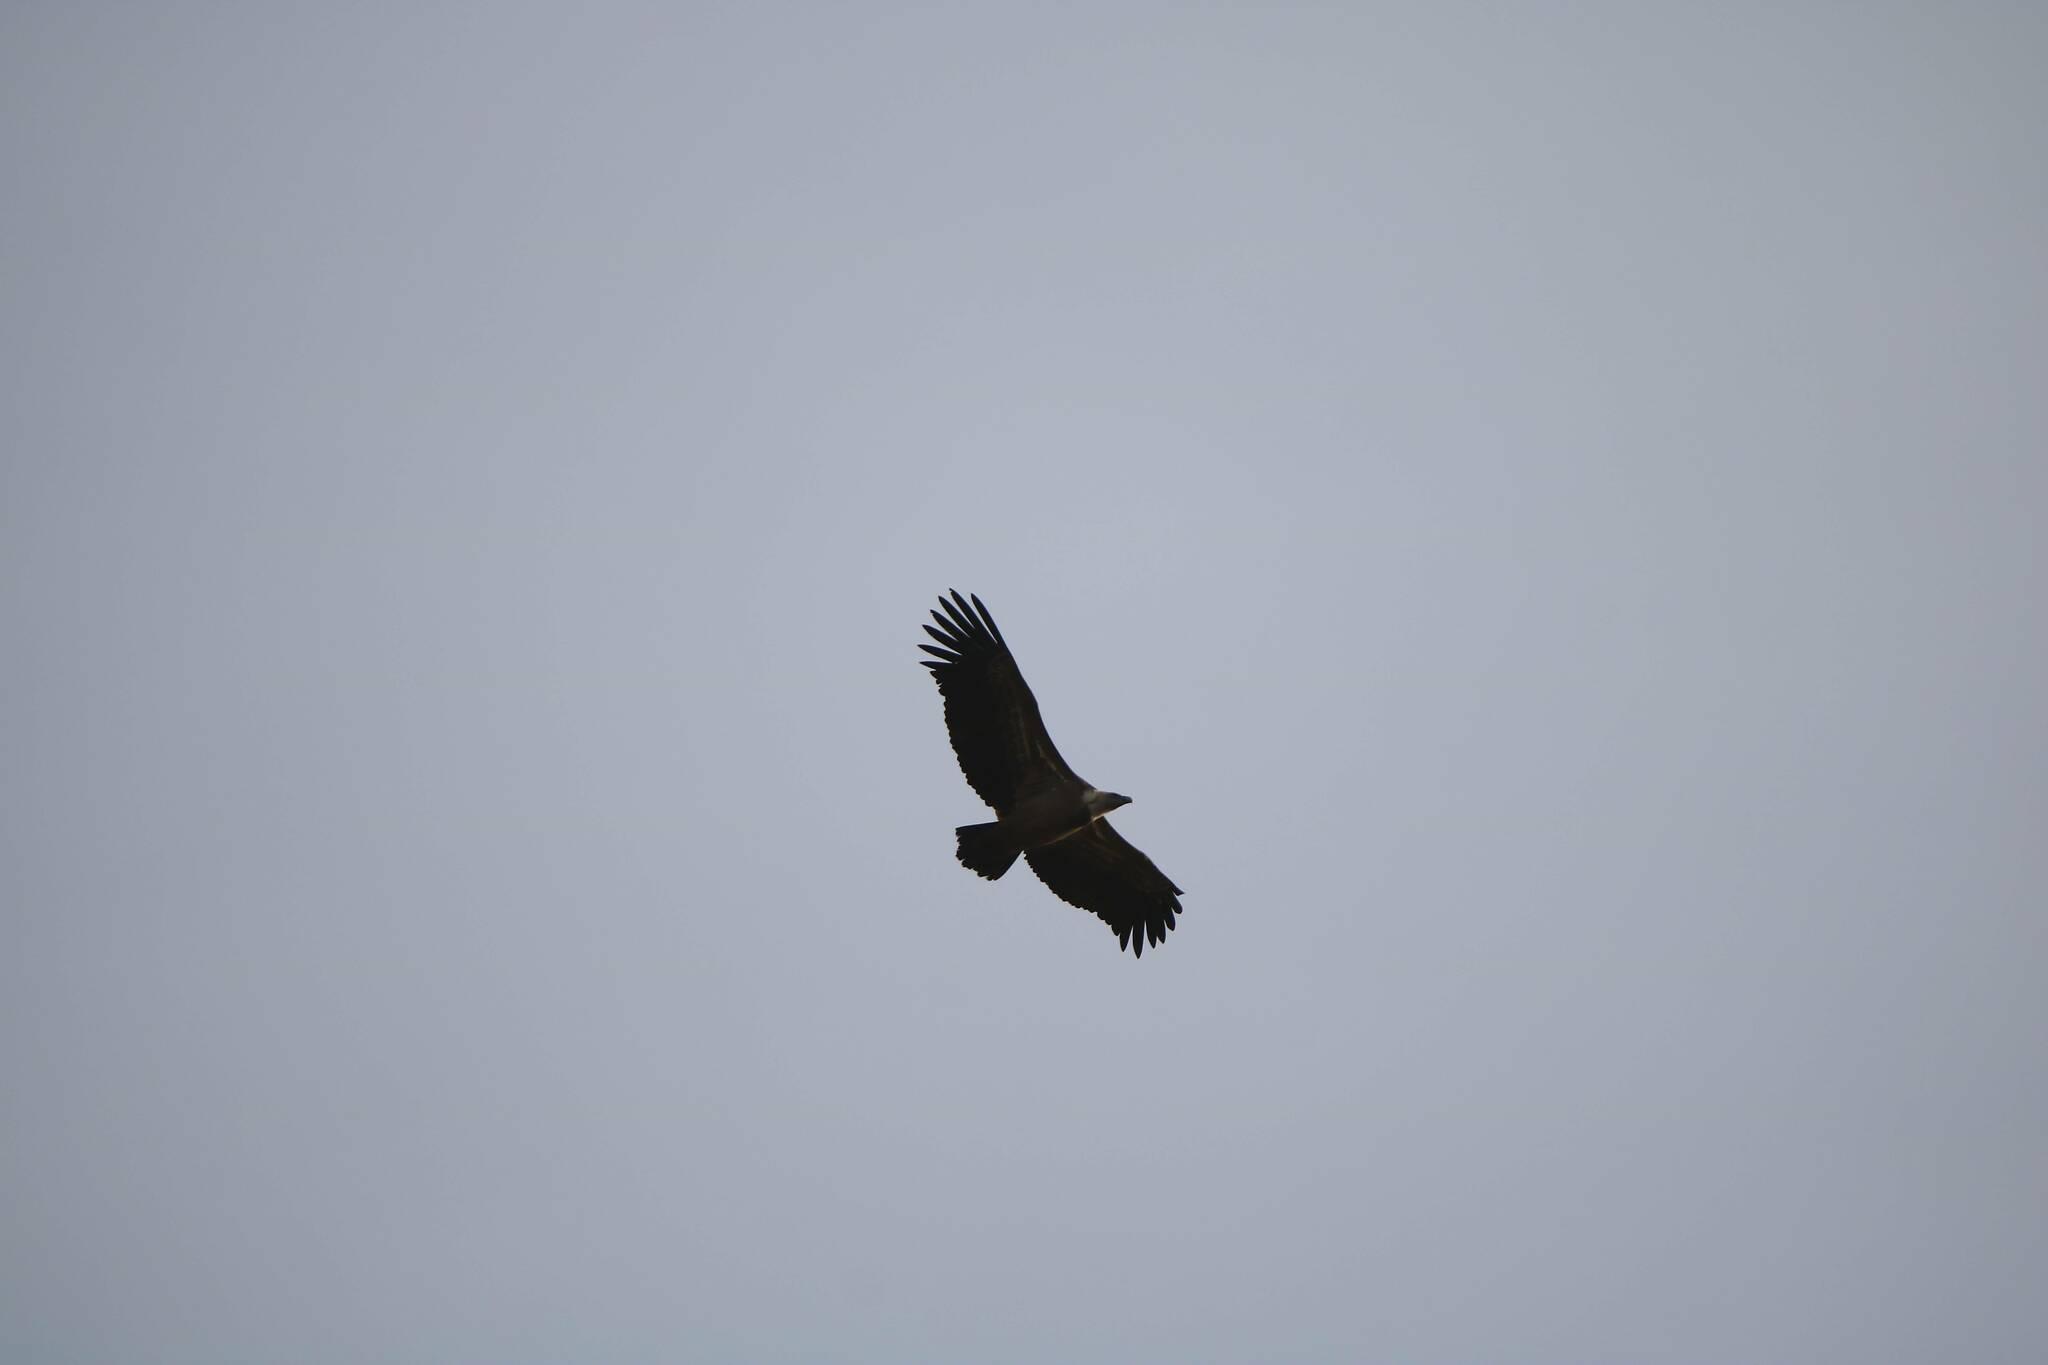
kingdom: Animalia
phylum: Chordata
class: Aves
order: Accipitriformes
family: Accipitridae
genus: Gyps
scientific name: Gyps fulvus
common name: Griffon vulture
